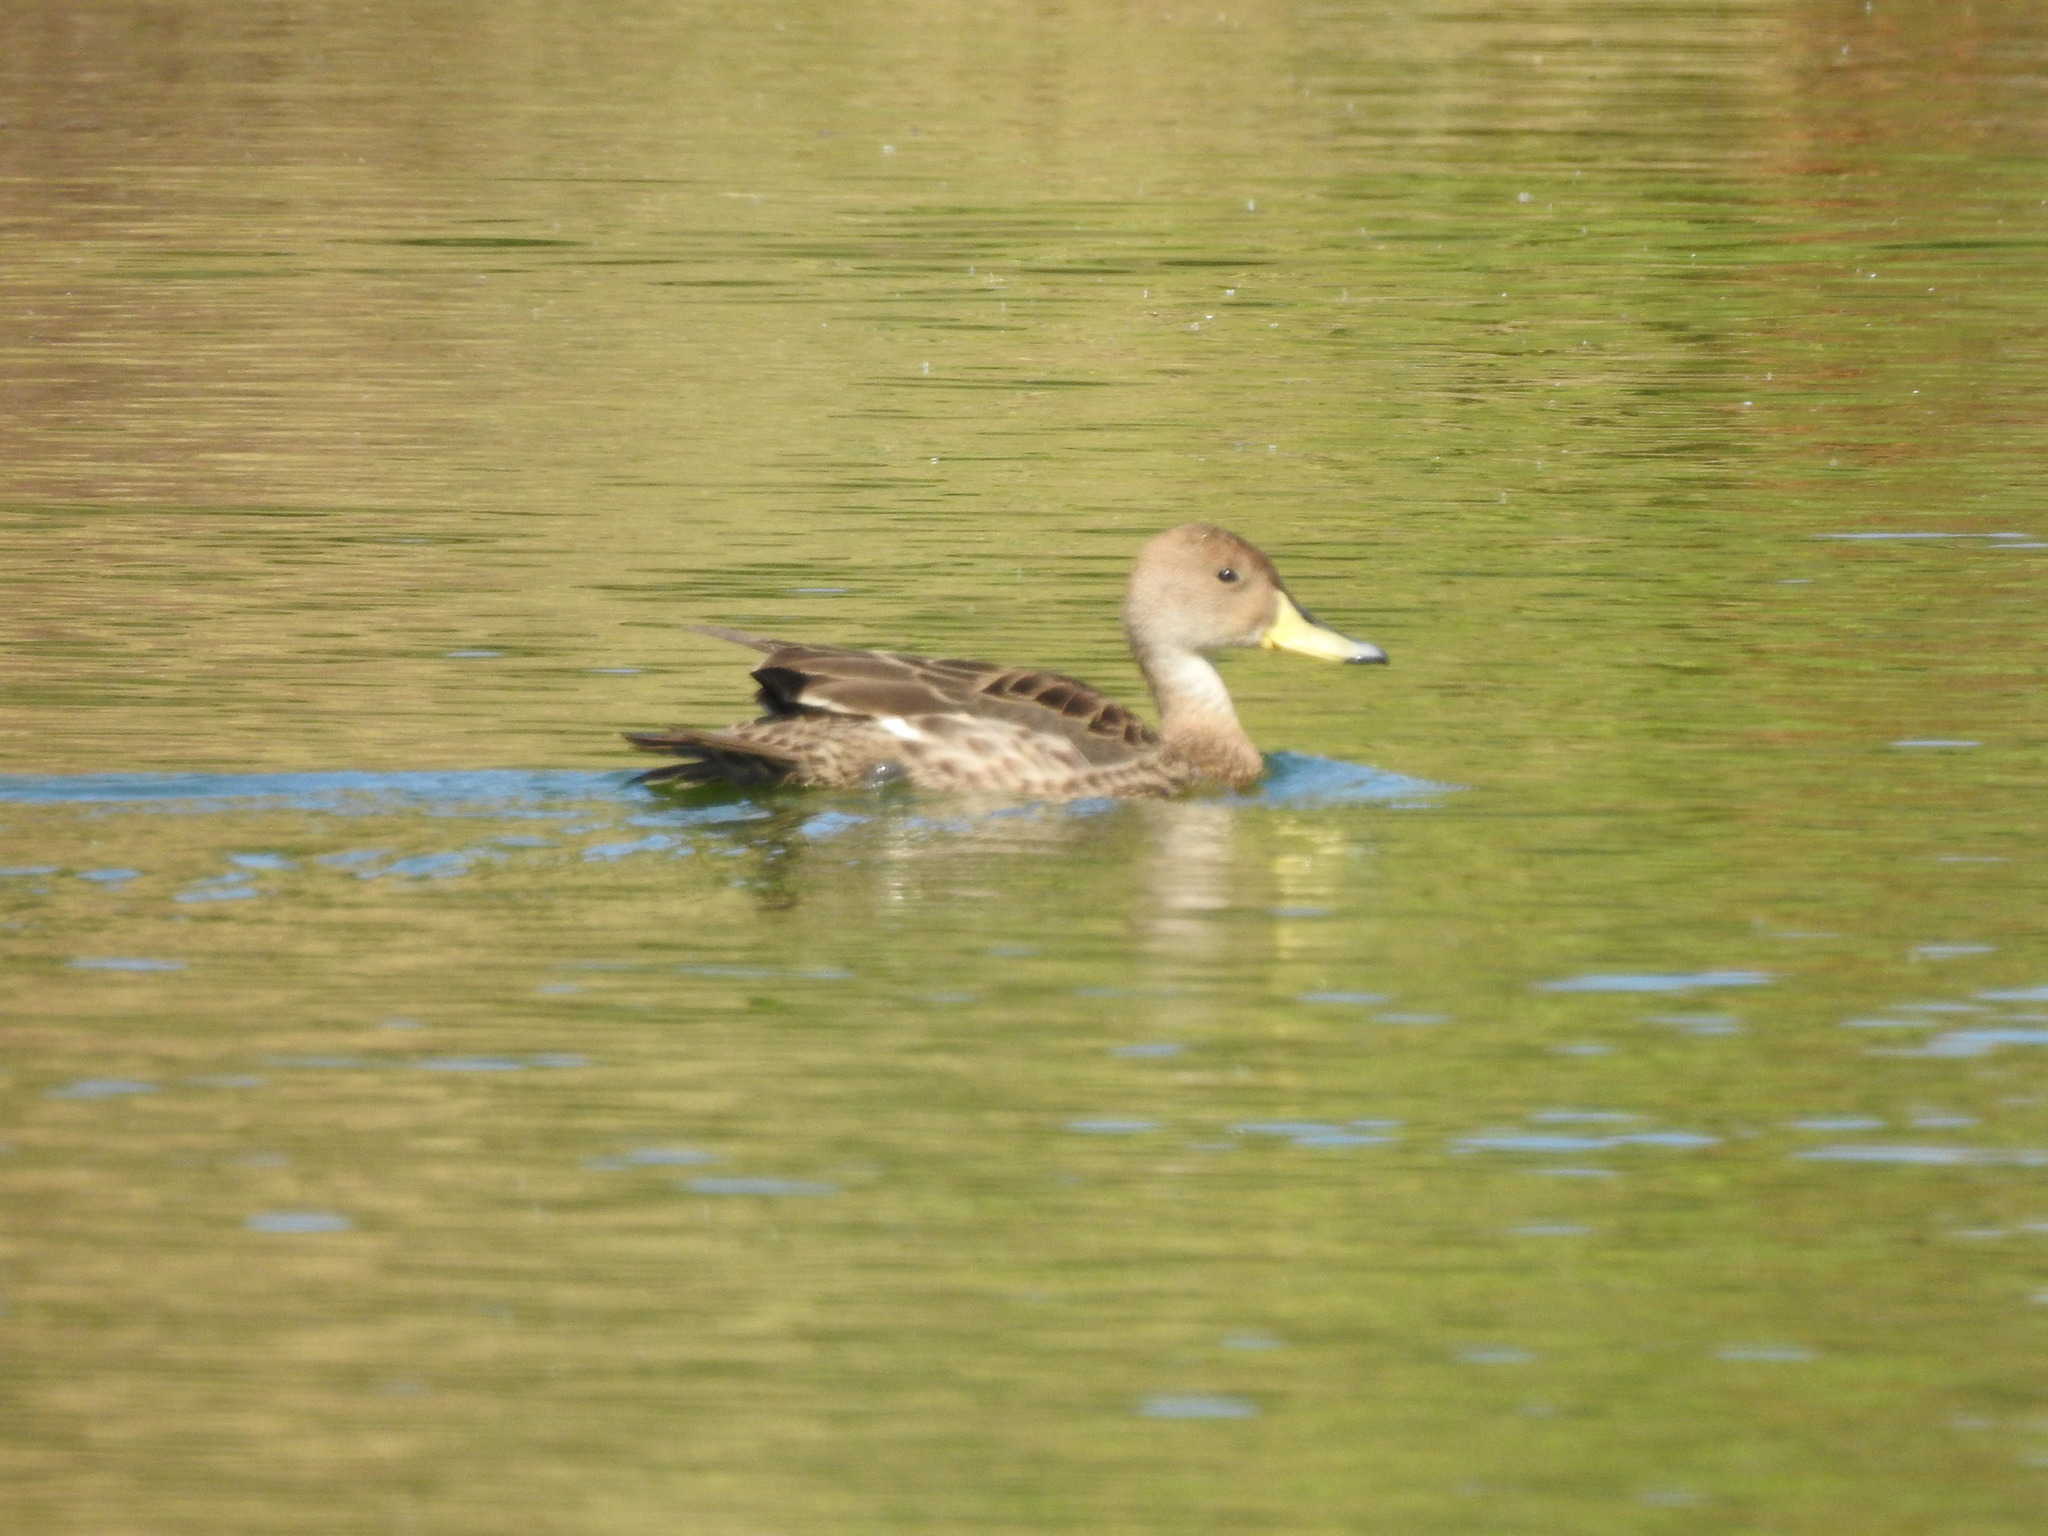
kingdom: Animalia
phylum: Chordata
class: Aves
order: Anseriformes
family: Anatidae
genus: Anas
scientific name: Anas georgica
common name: Yellow-billed pintail
